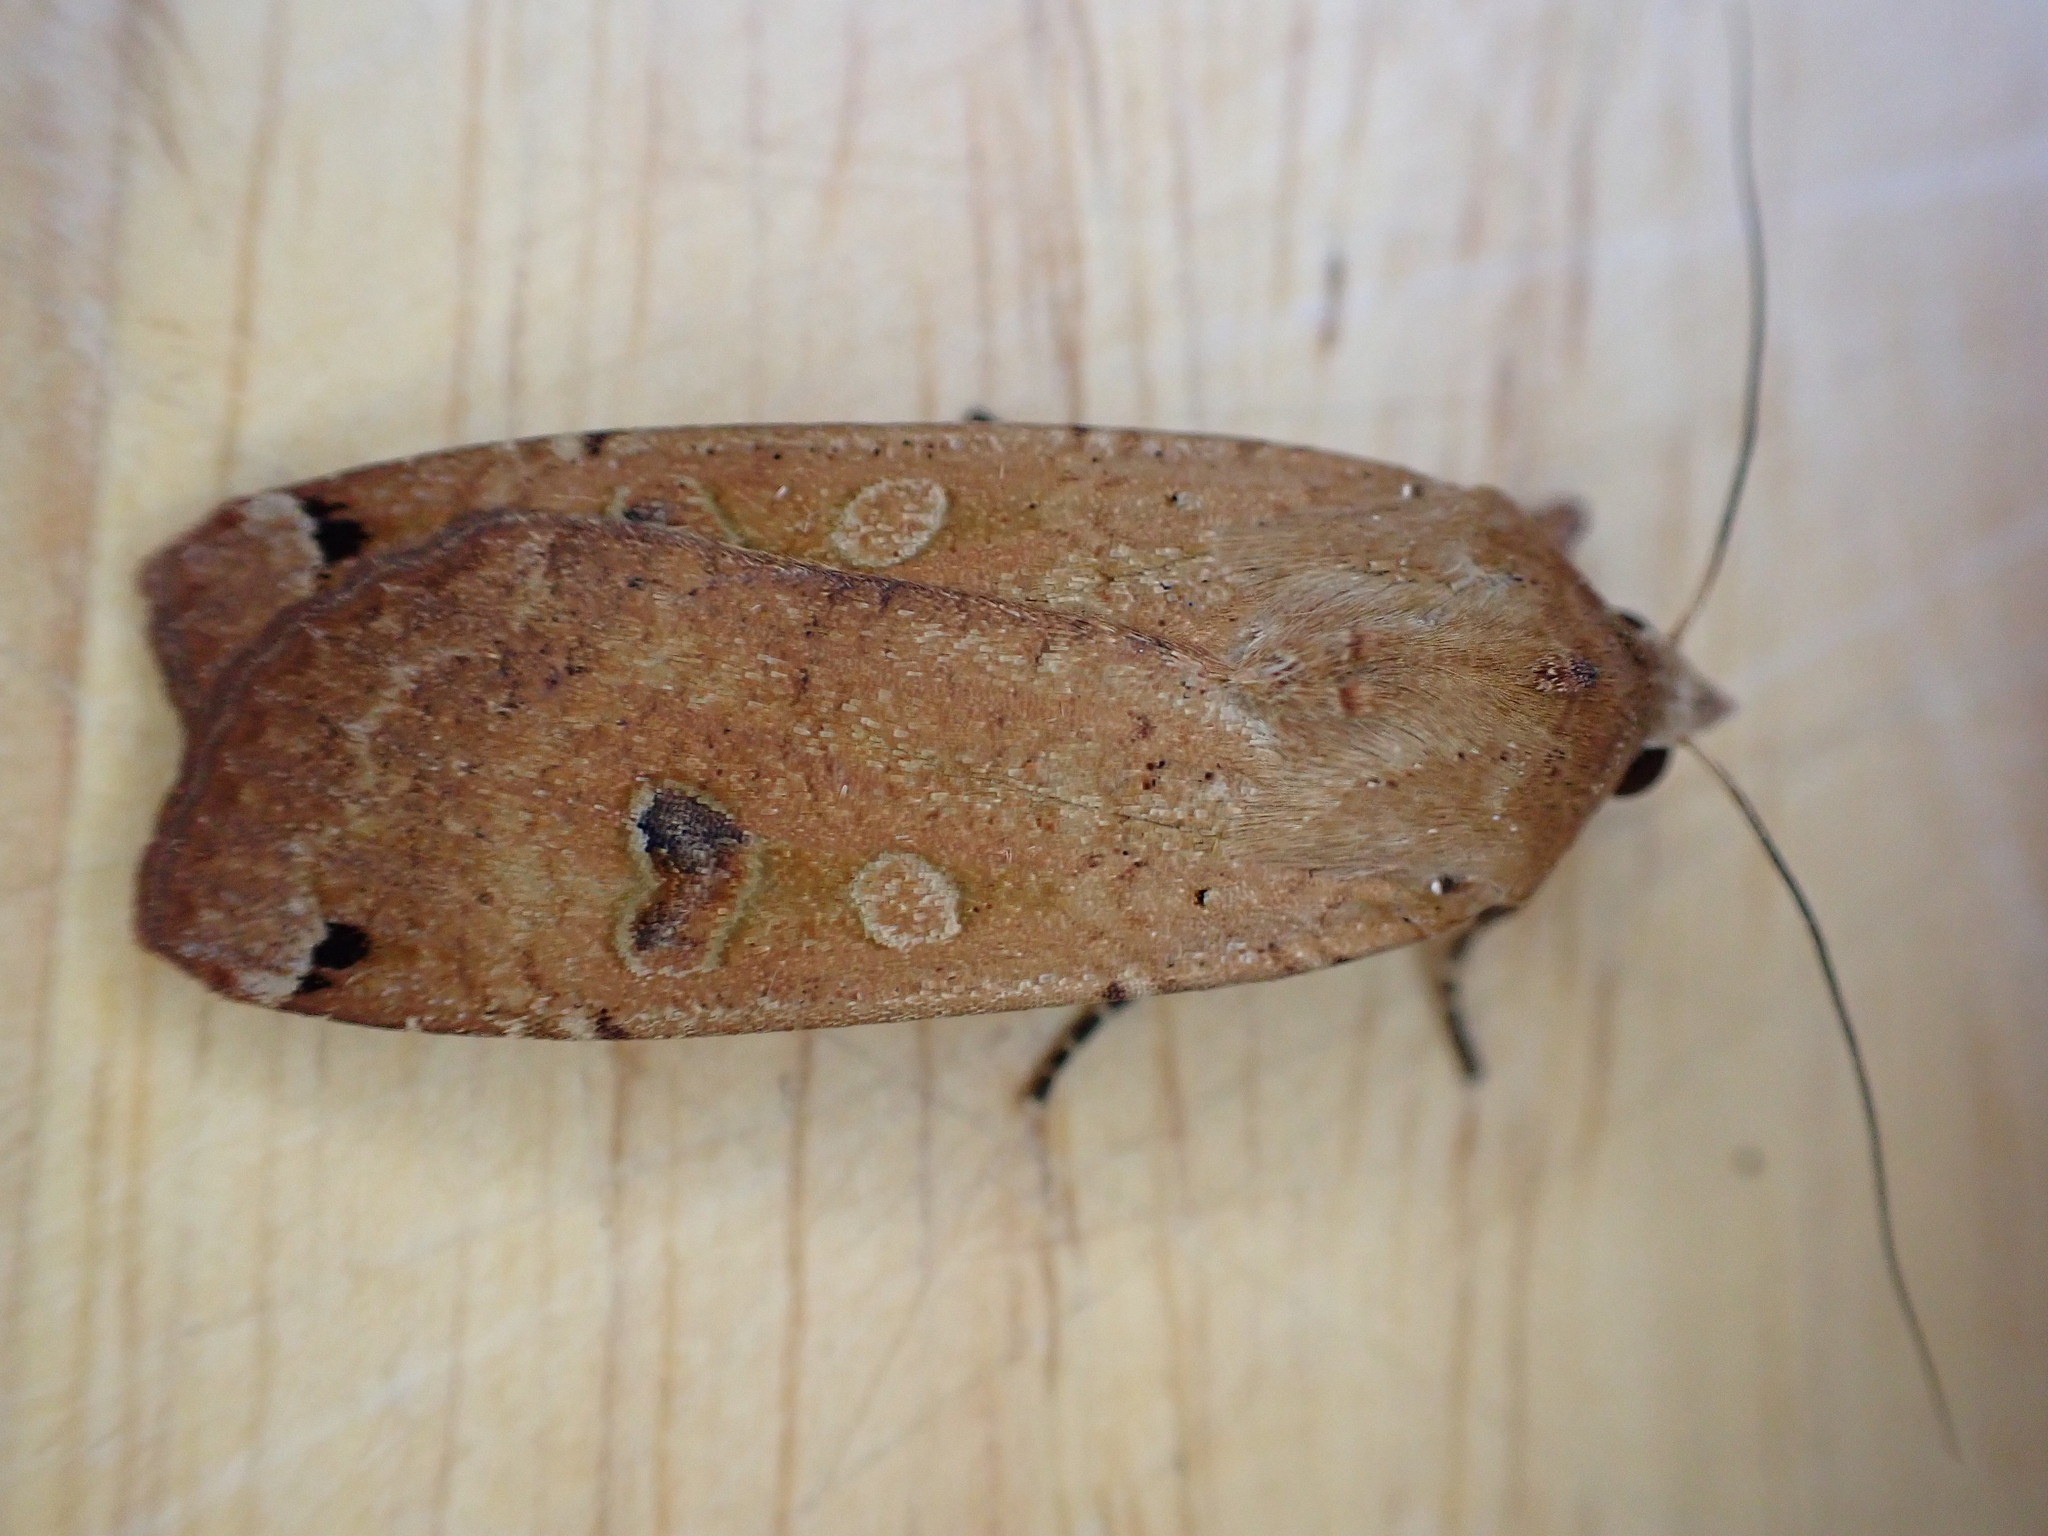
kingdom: Animalia
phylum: Arthropoda
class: Insecta
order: Lepidoptera
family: Noctuidae
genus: Noctua
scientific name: Noctua pronuba
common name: Large yellow underwing
